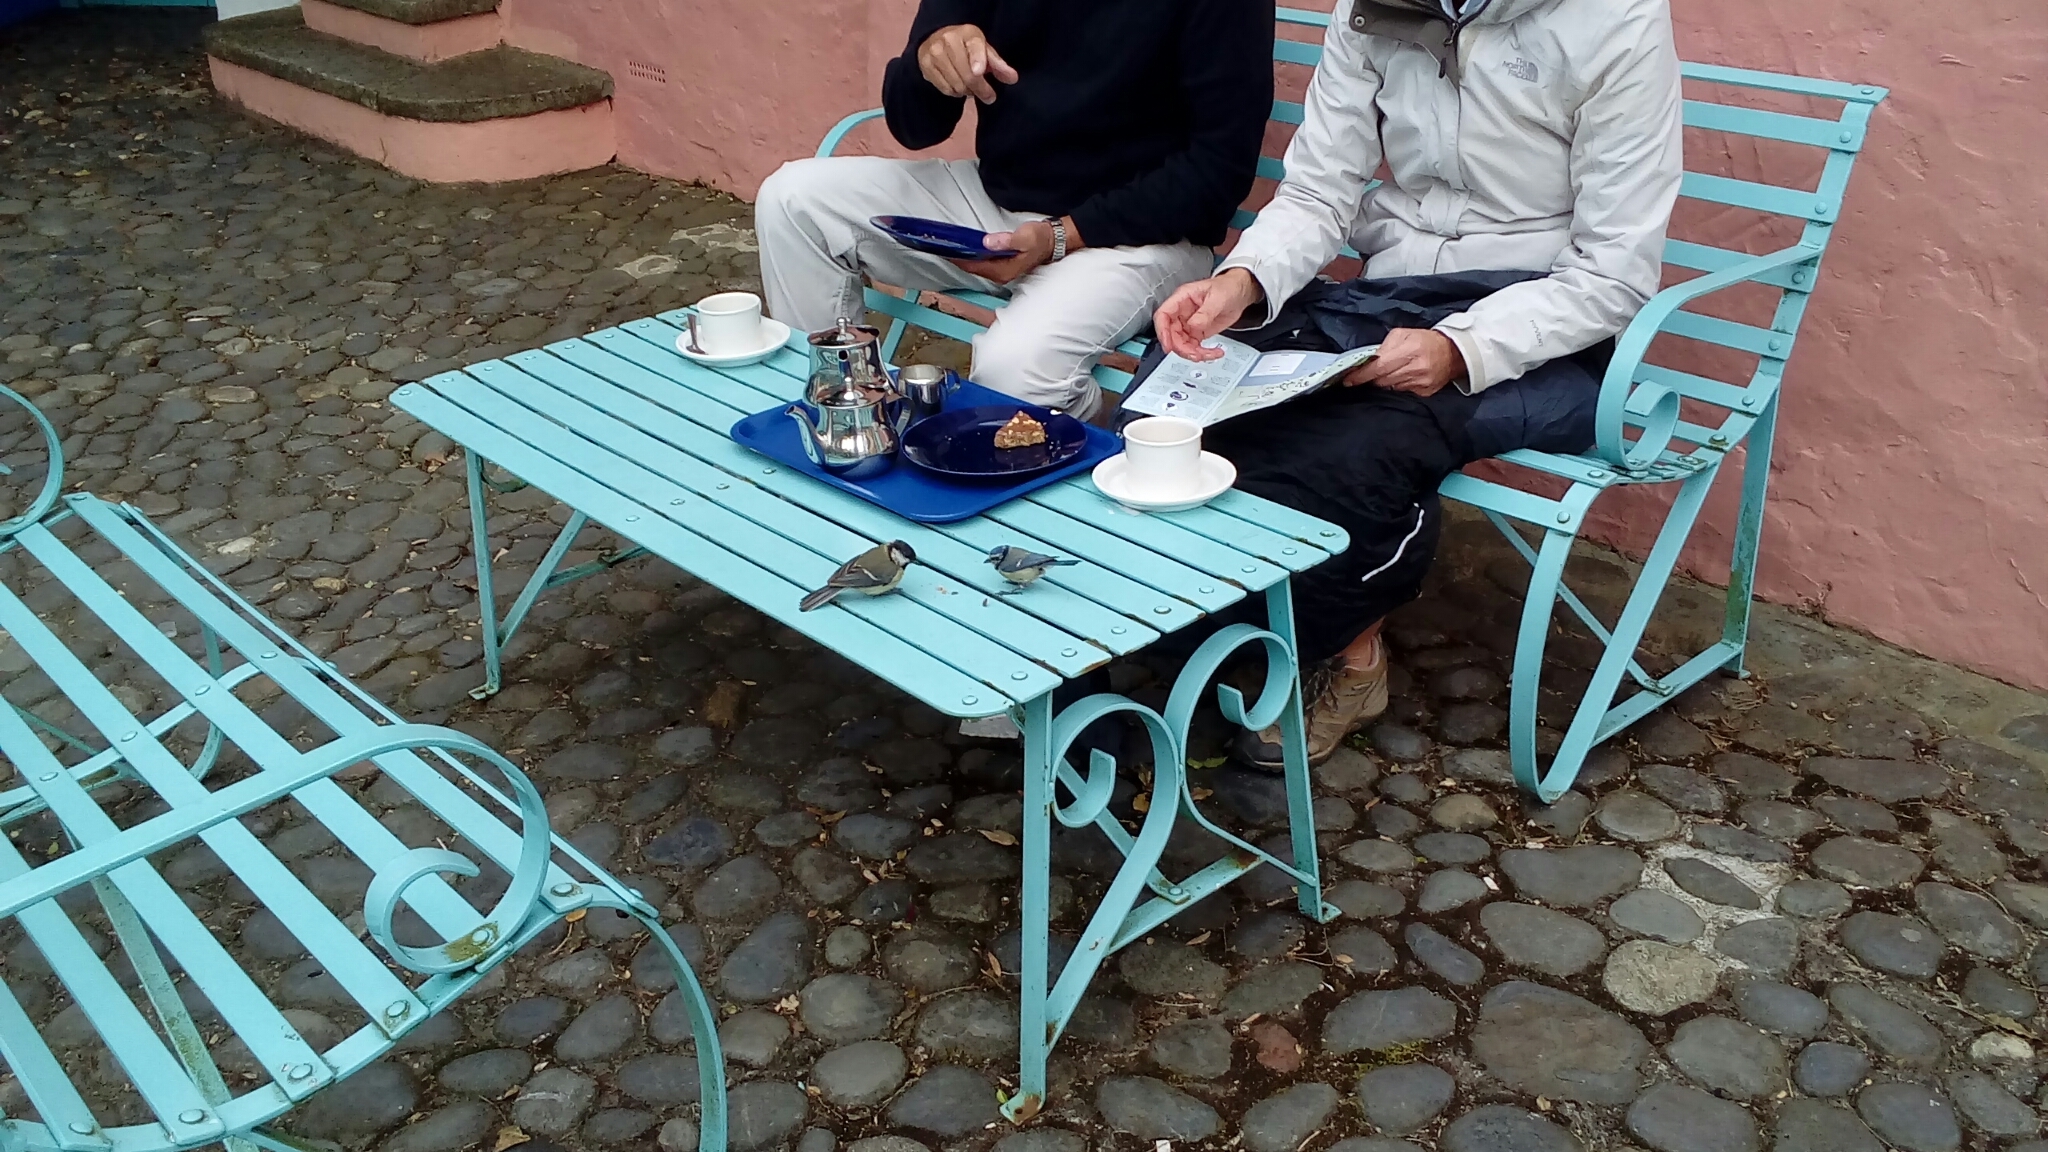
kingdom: Animalia
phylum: Chordata
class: Aves
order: Passeriformes
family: Paridae
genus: Parus
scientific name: Parus major
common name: Great tit
